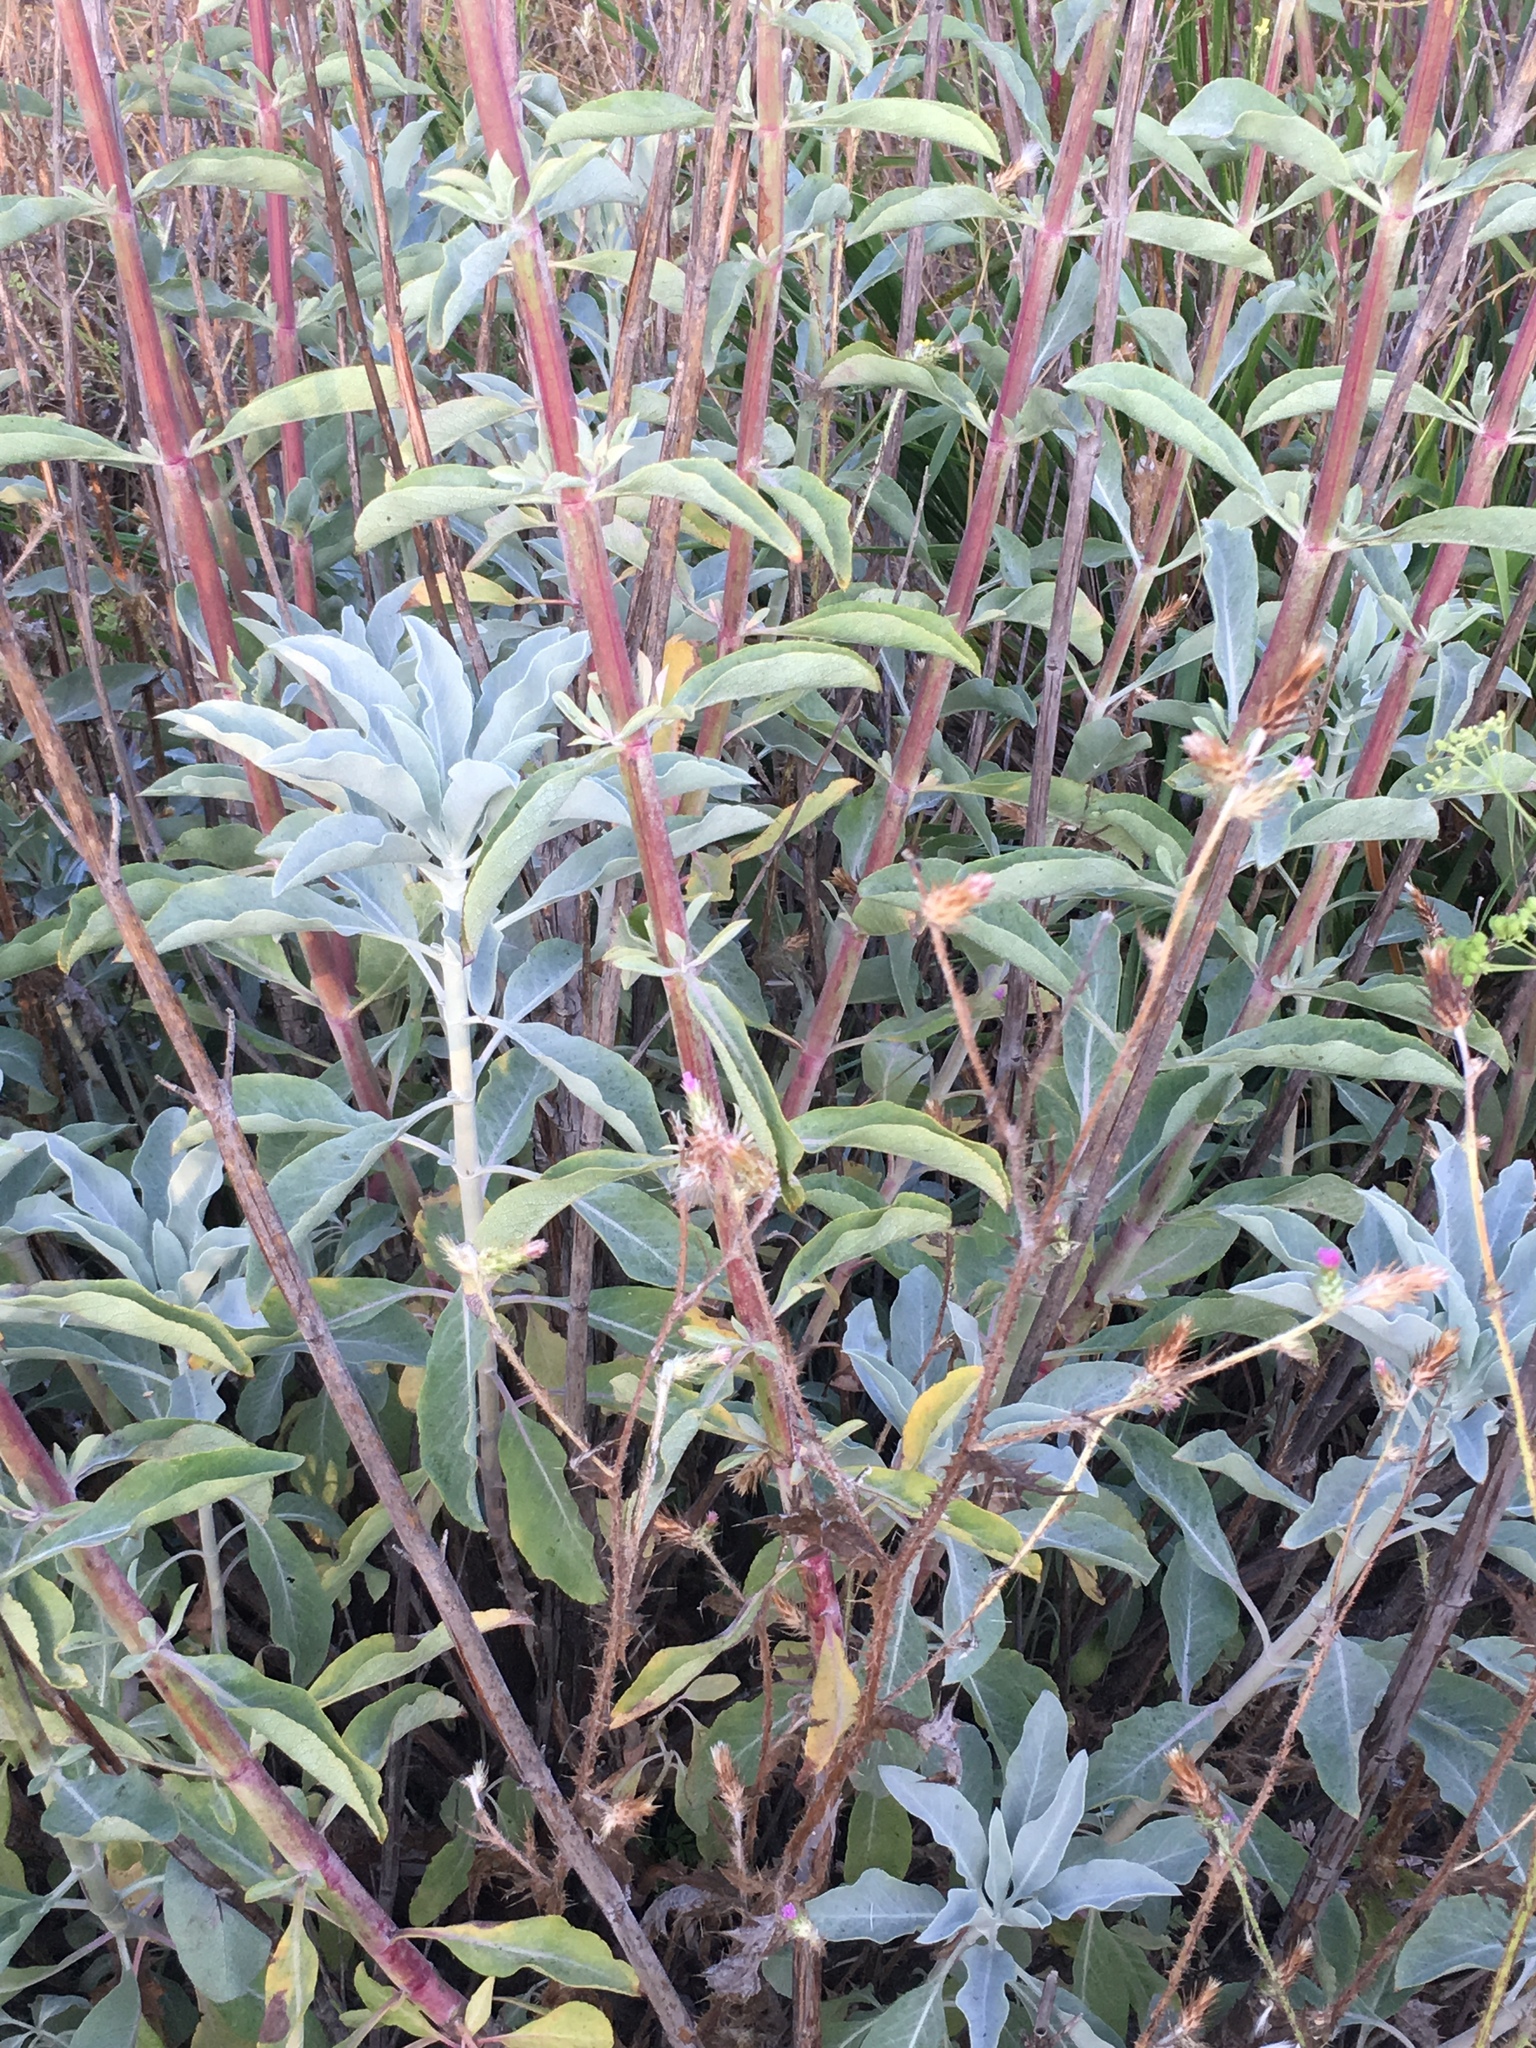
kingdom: Plantae
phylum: Tracheophyta
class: Magnoliopsida
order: Lamiales
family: Lamiaceae
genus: Salvia
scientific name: Salvia apiana
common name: White sage
